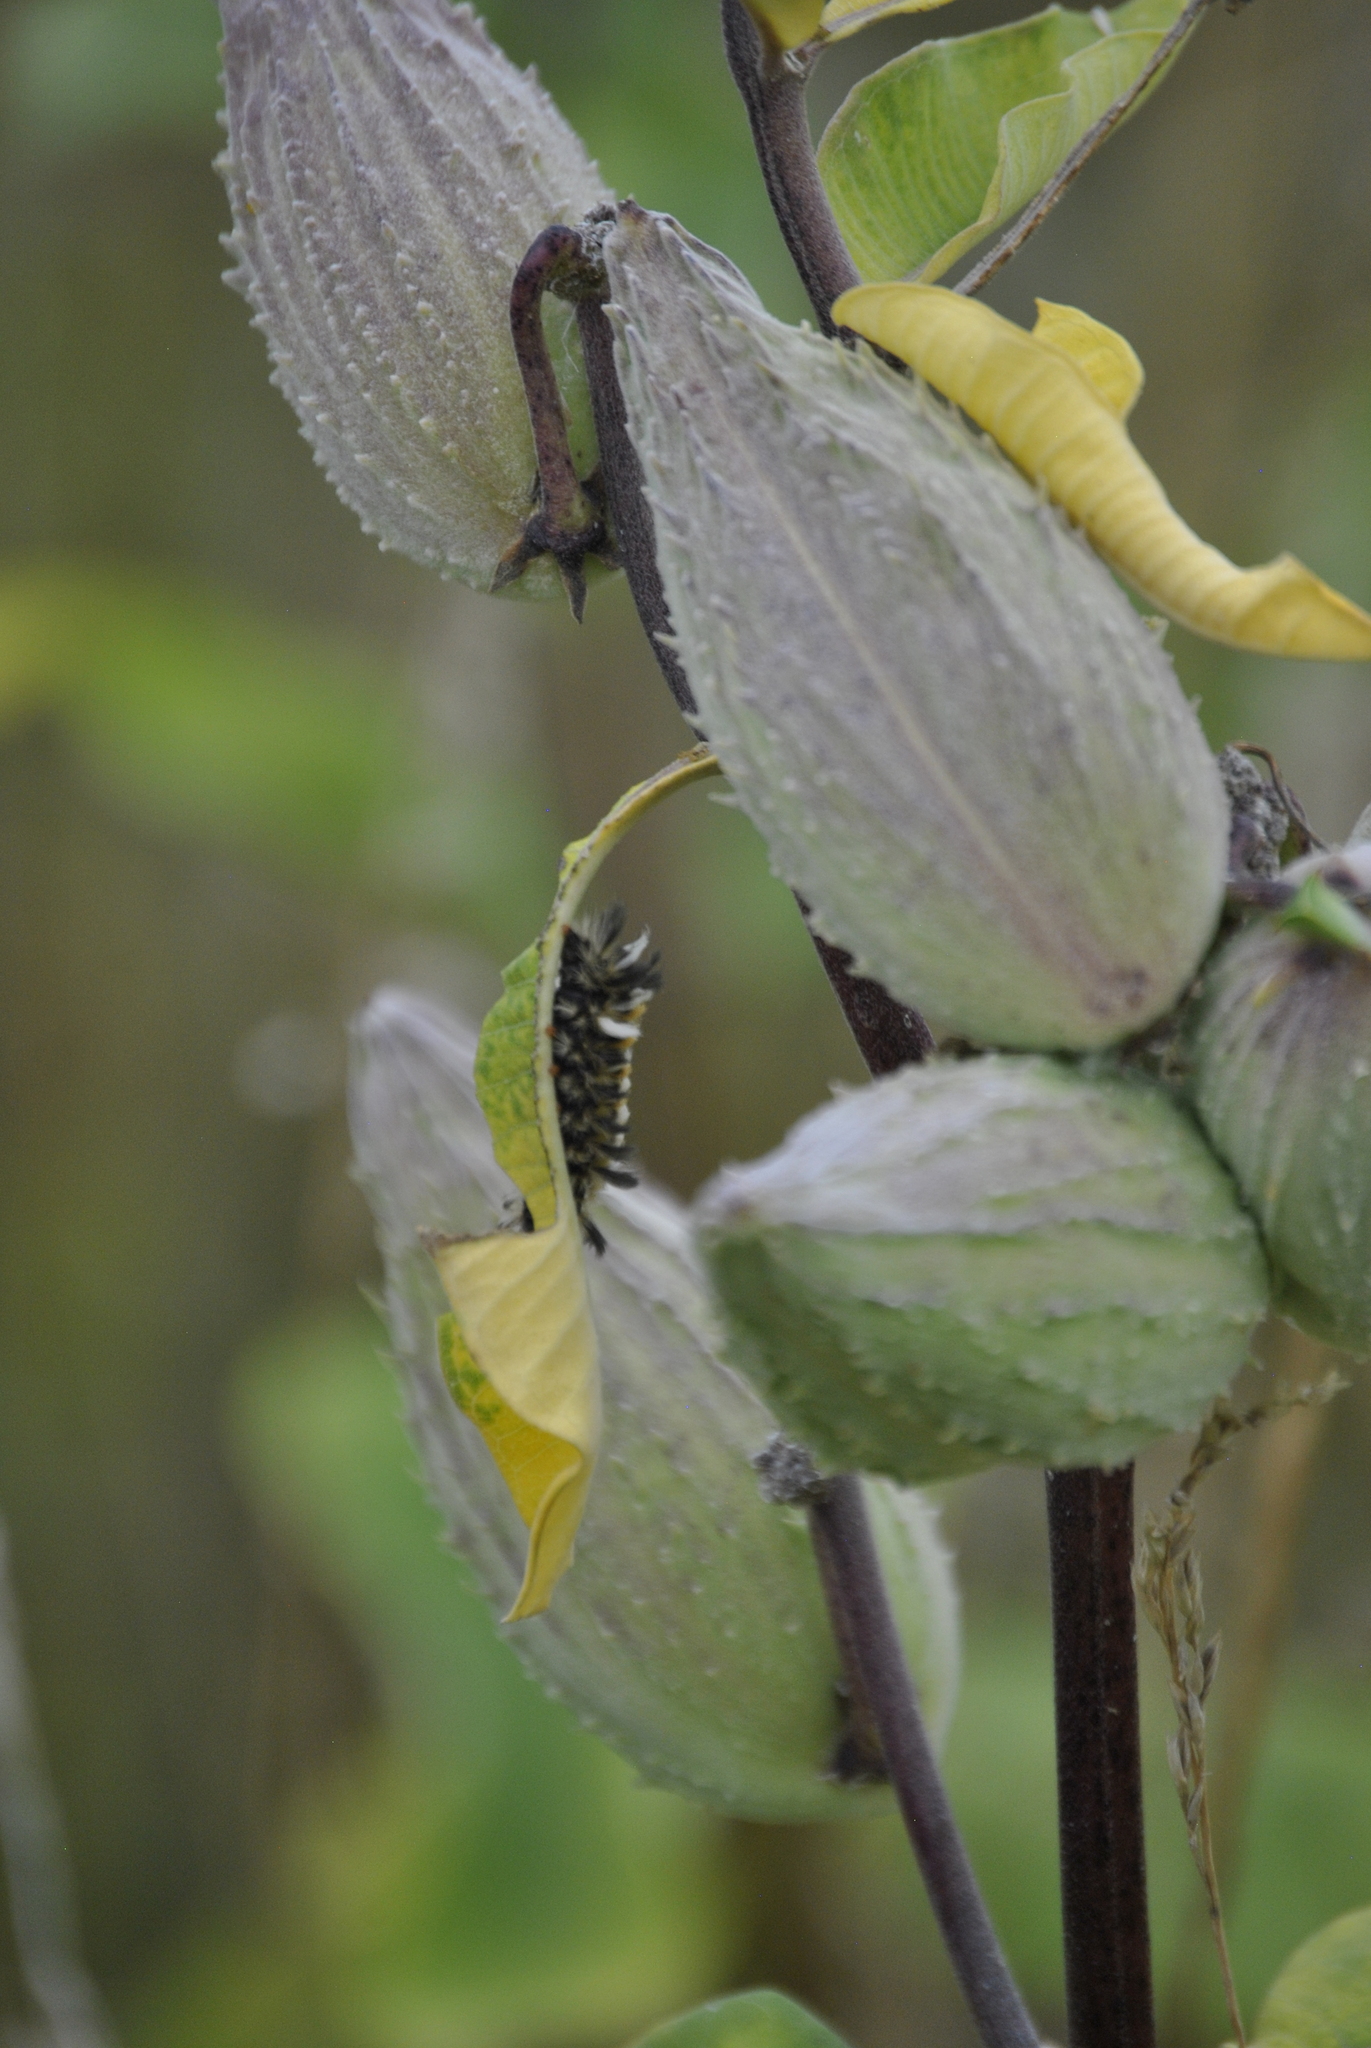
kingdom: Animalia
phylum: Arthropoda
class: Insecta
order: Lepidoptera
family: Erebidae
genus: Euchaetes
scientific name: Euchaetes egle
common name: Milkweed tussock moth
